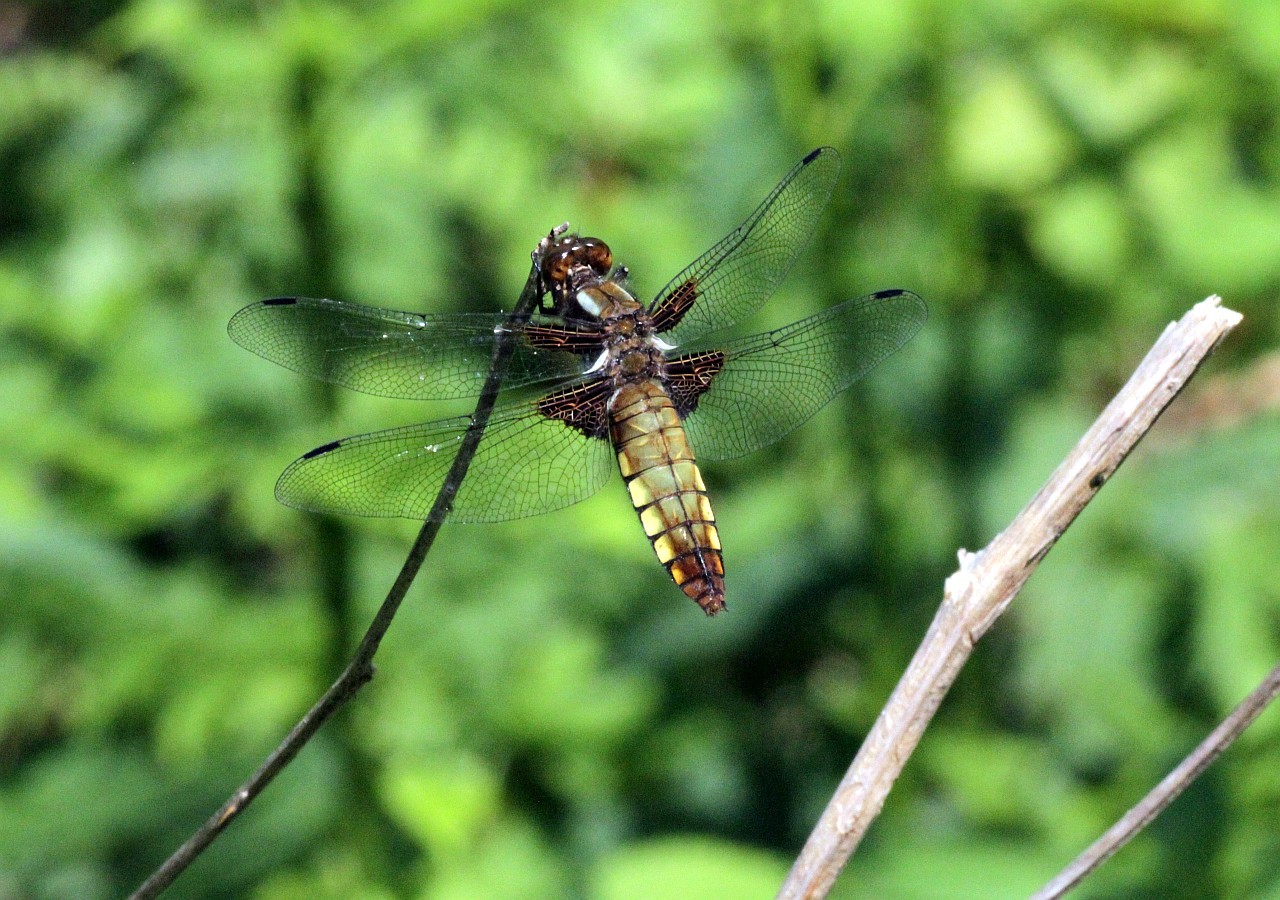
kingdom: Animalia
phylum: Arthropoda
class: Insecta
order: Odonata
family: Libellulidae
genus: Libellula
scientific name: Libellula depressa
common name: Broad-bodied chaser
